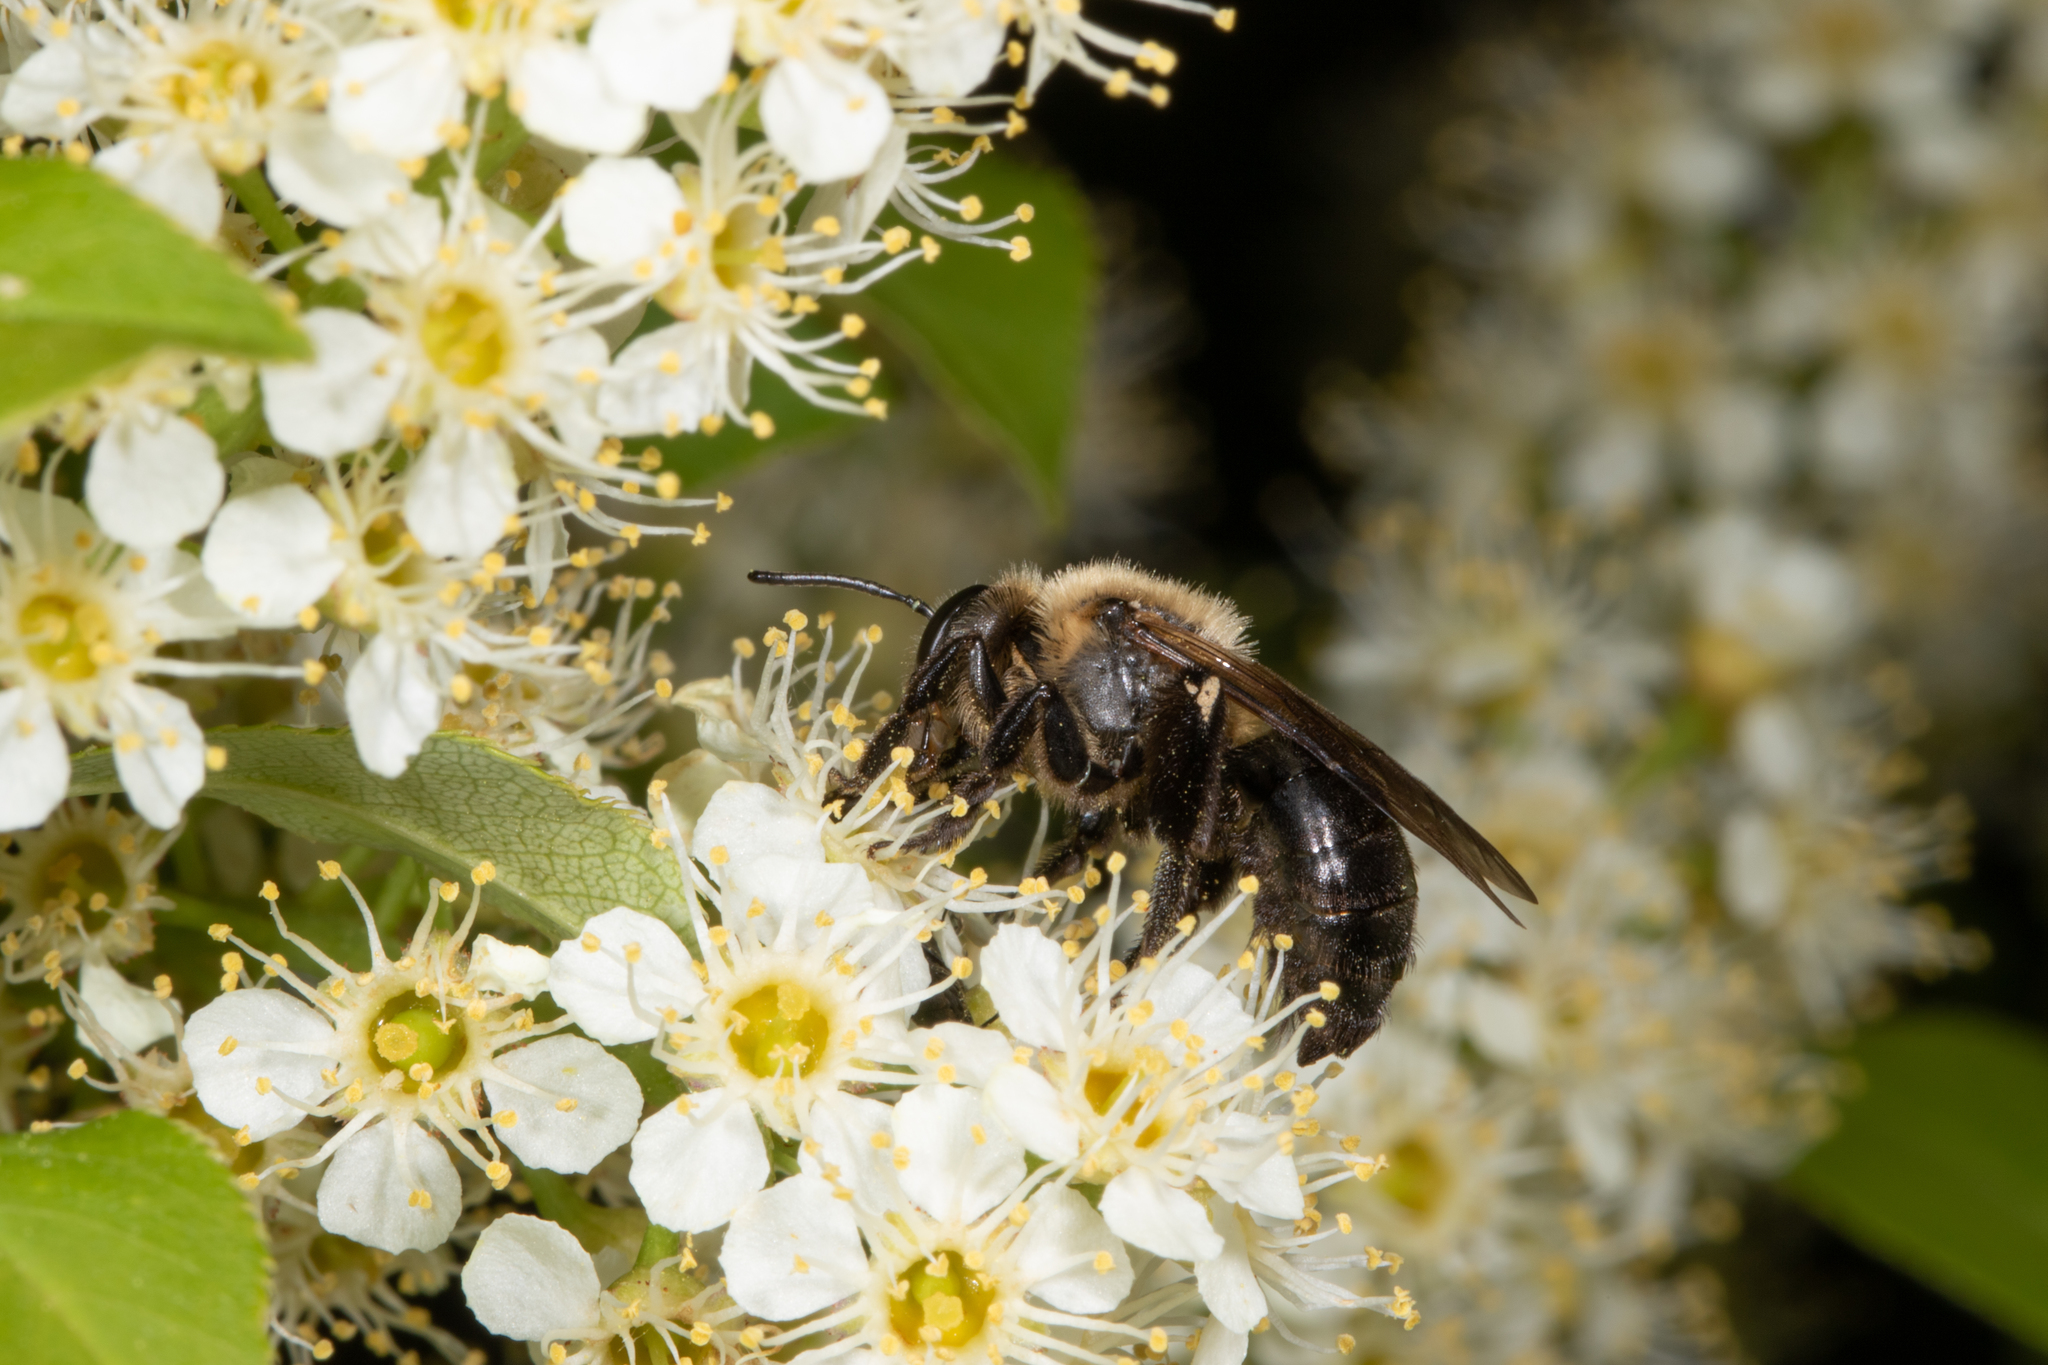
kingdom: Animalia
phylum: Arthropoda
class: Insecta
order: Hymenoptera
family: Andrenidae
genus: Andrena
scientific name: Andrena vicina
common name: Neighborly mining bee
